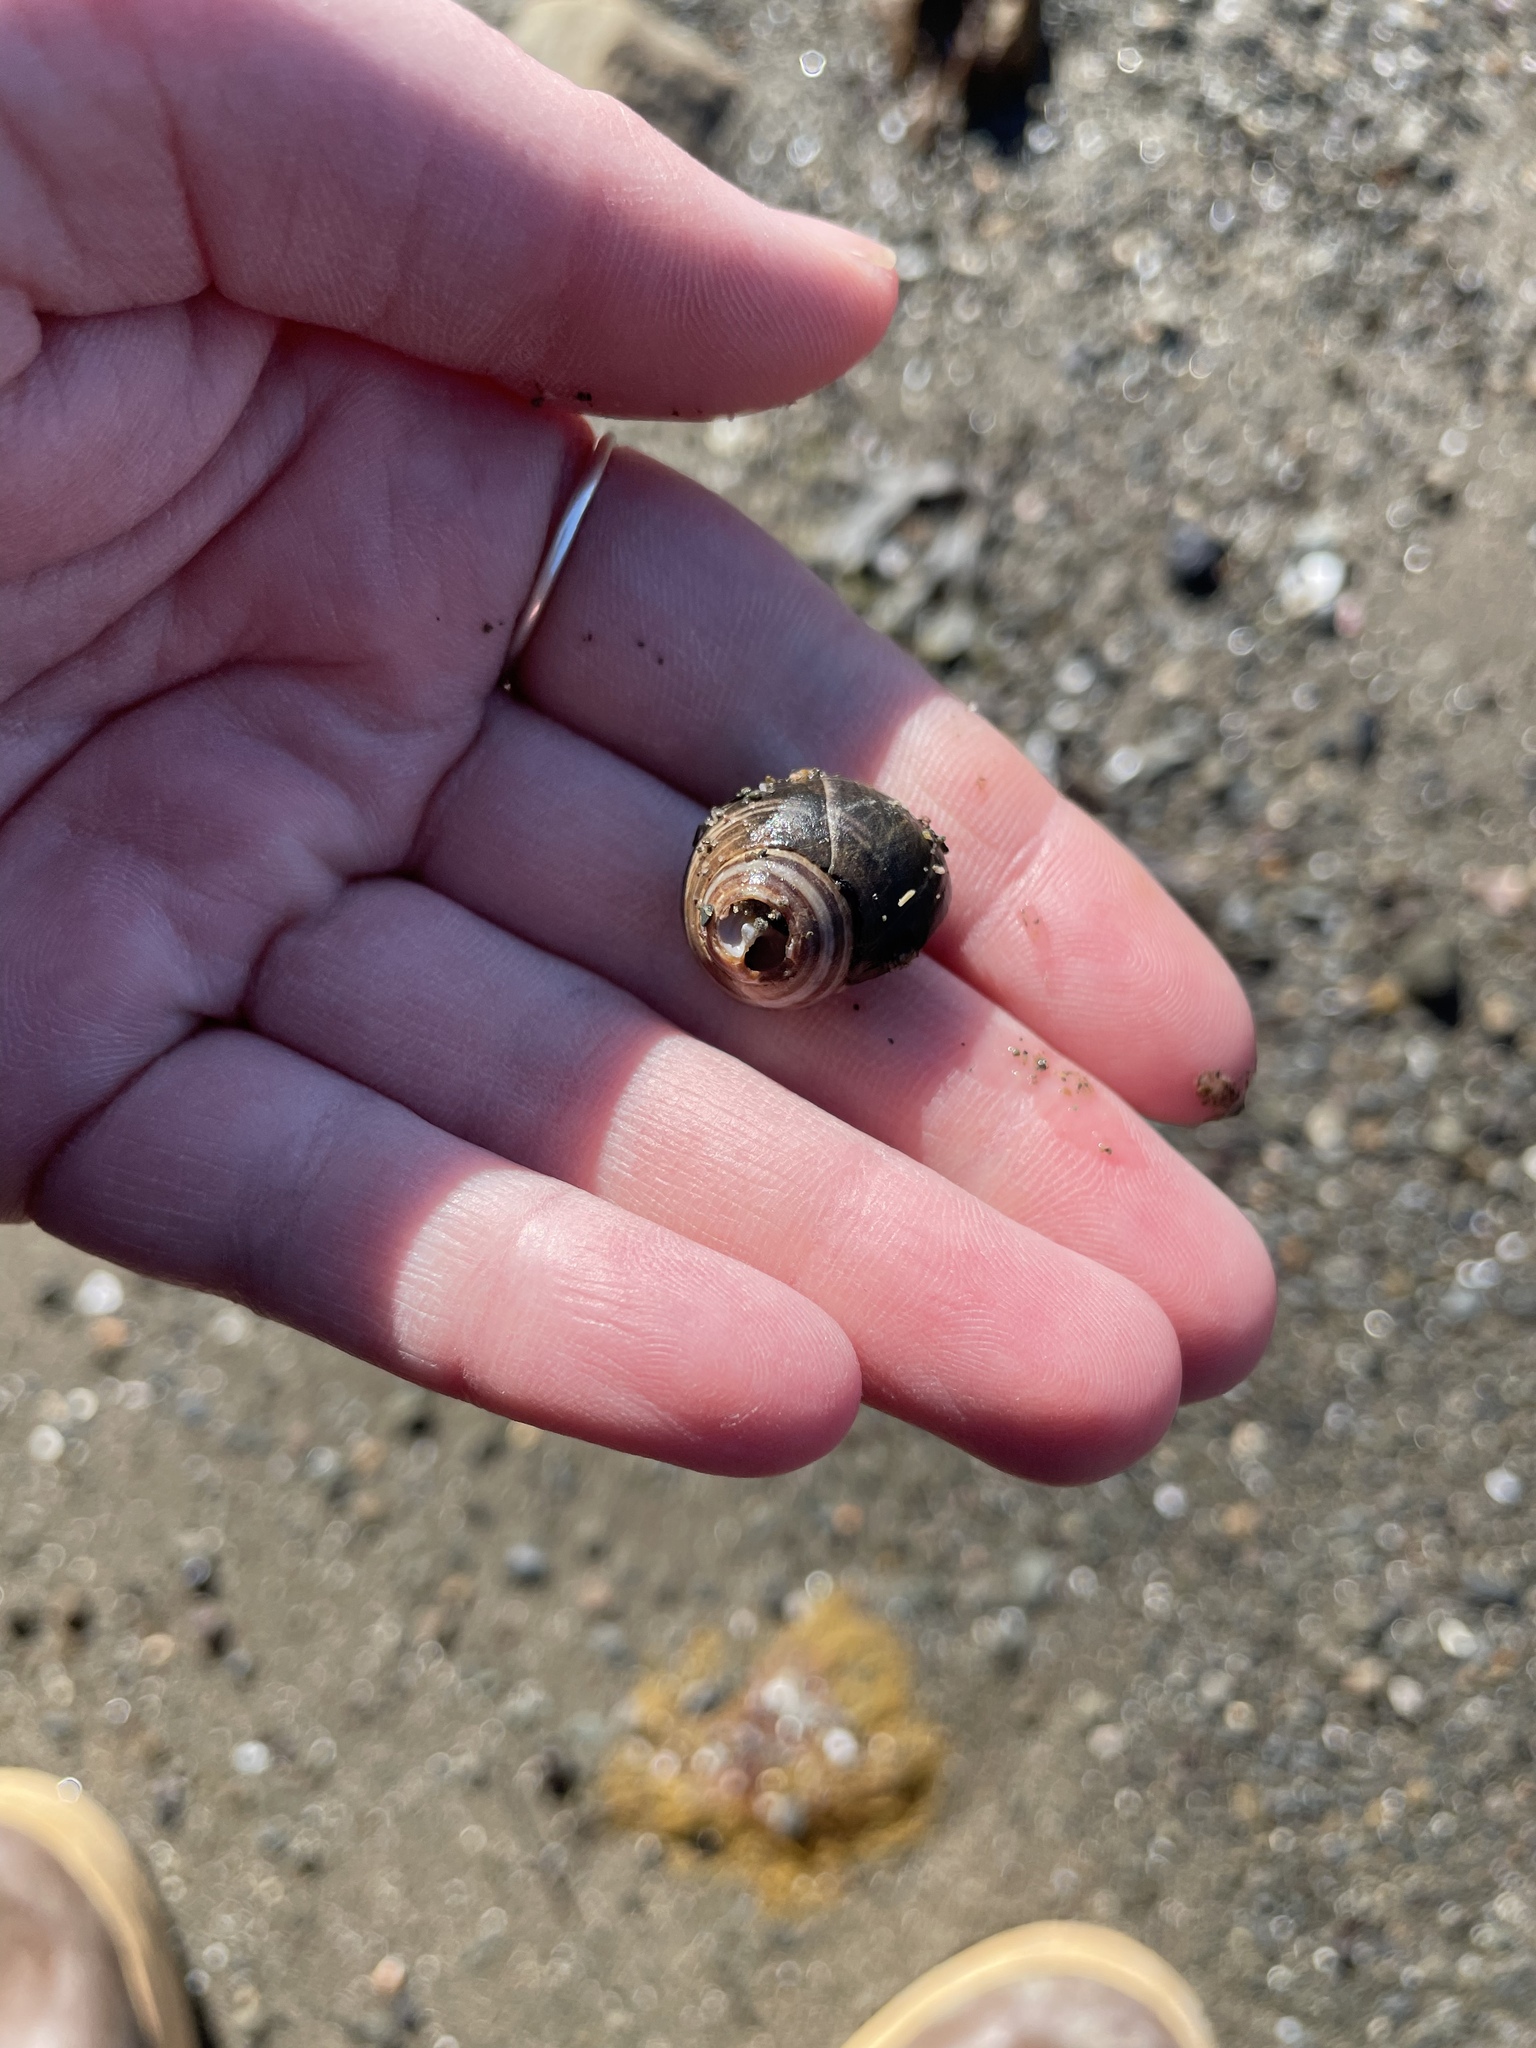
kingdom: Animalia
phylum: Mollusca
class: Gastropoda
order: Littorinimorpha
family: Littorinidae
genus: Littorina
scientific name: Littorina littorea
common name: Common periwinkle
